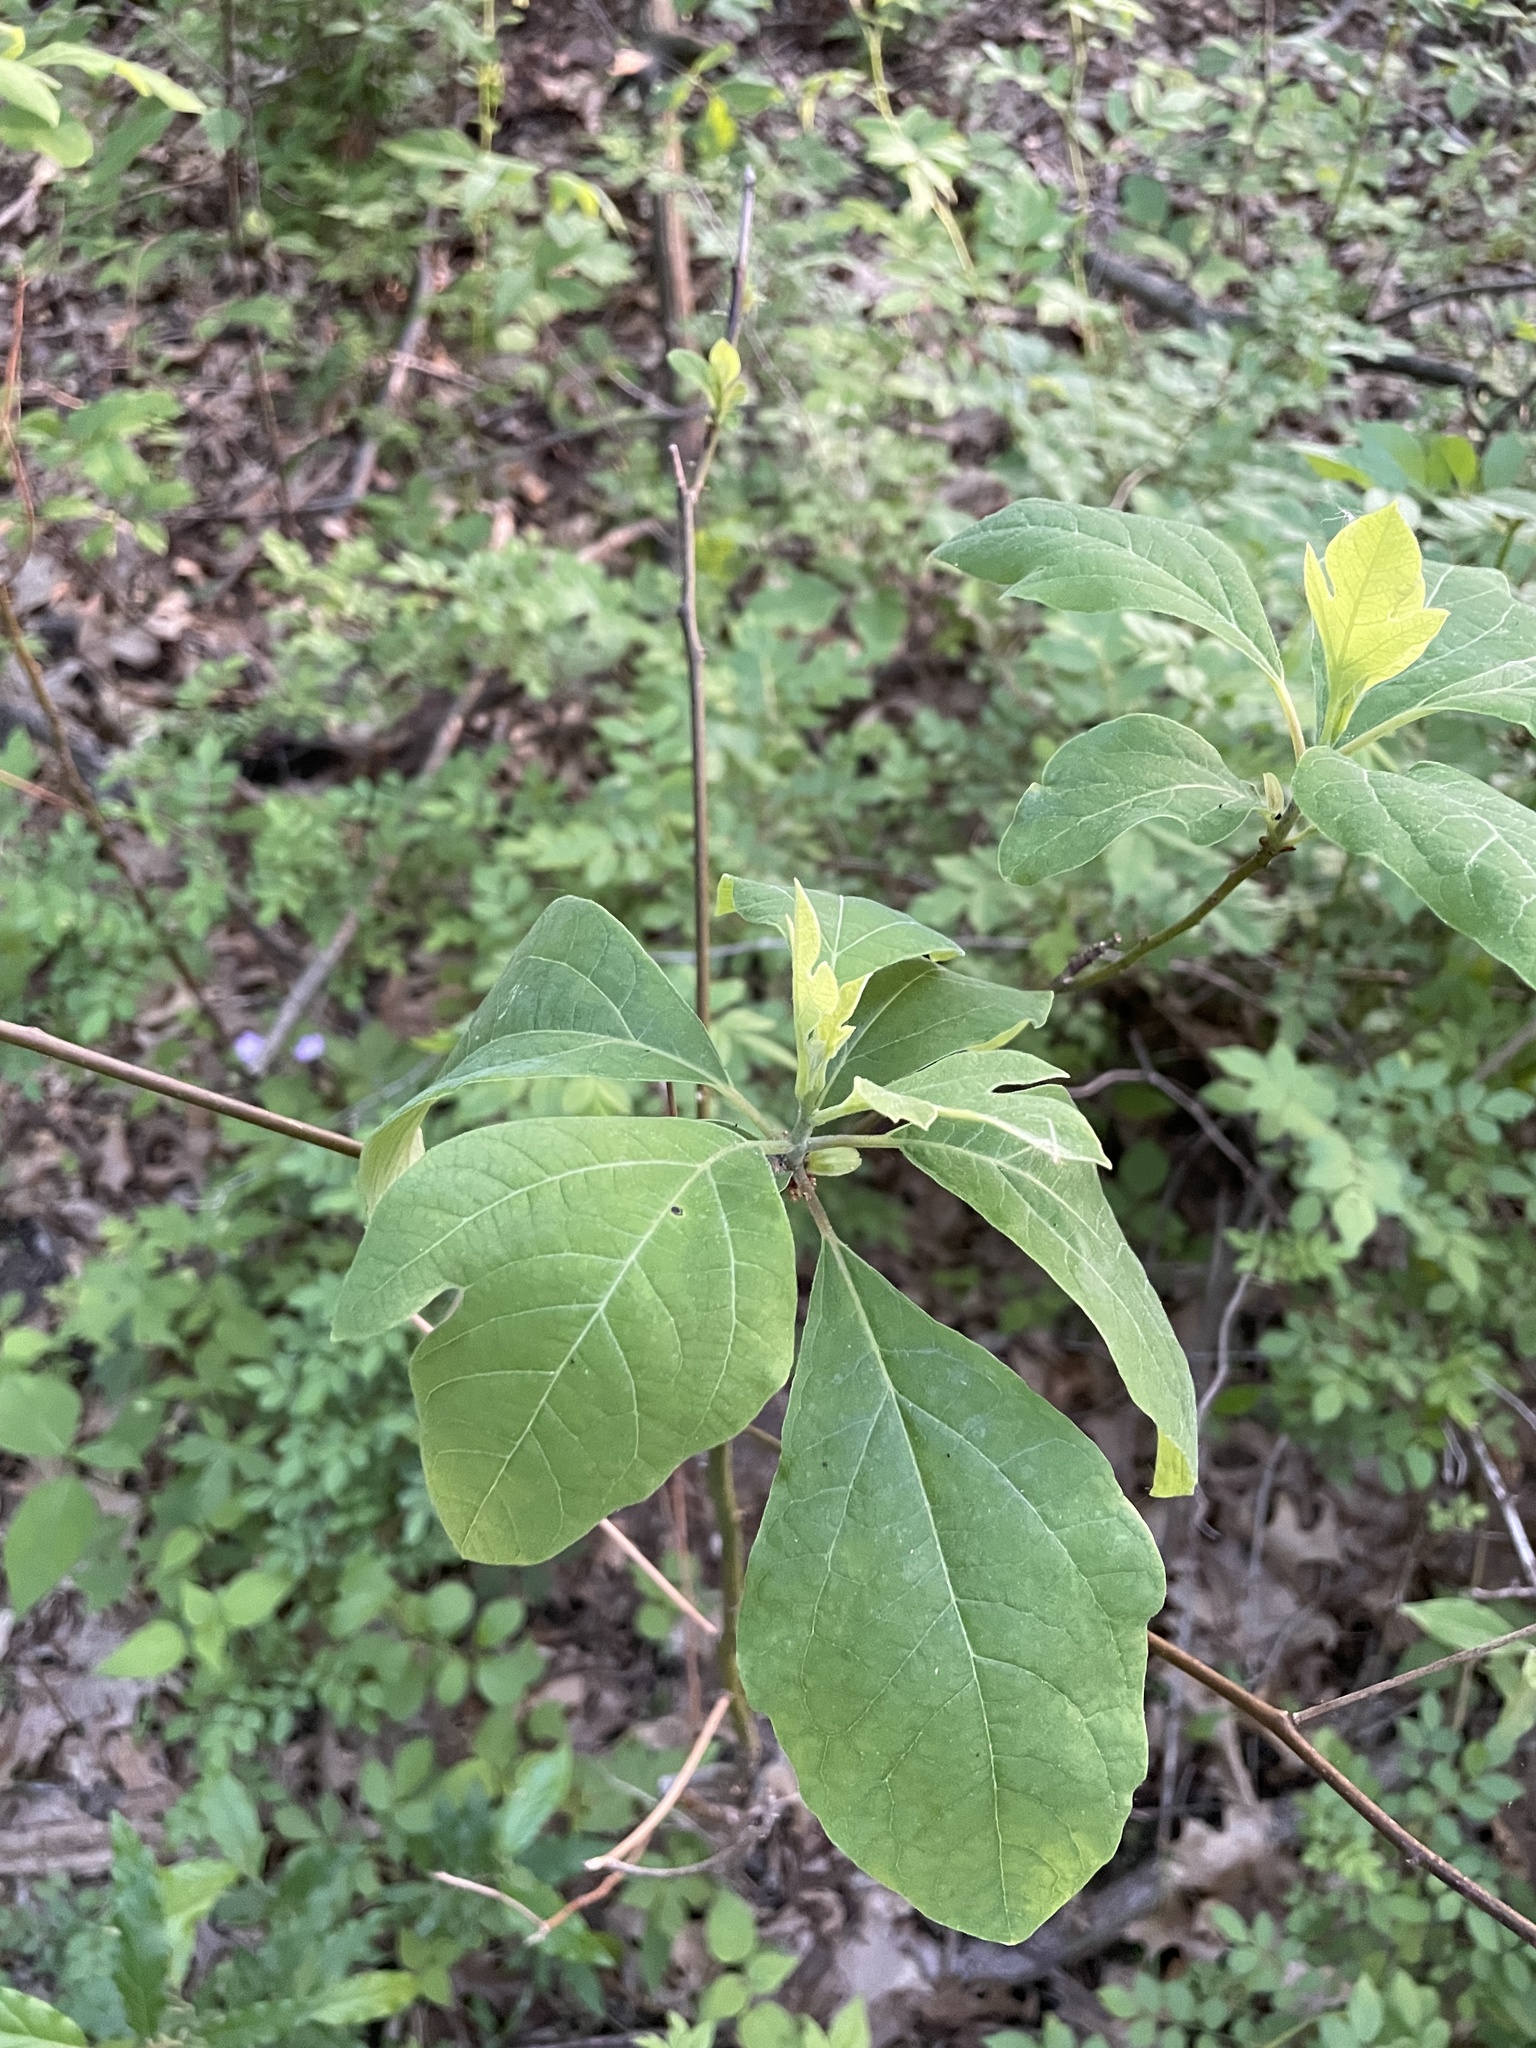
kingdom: Plantae
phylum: Tracheophyta
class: Magnoliopsida
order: Laurales
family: Lauraceae
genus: Sassafras
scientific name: Sassafras albidum
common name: Sassafras
